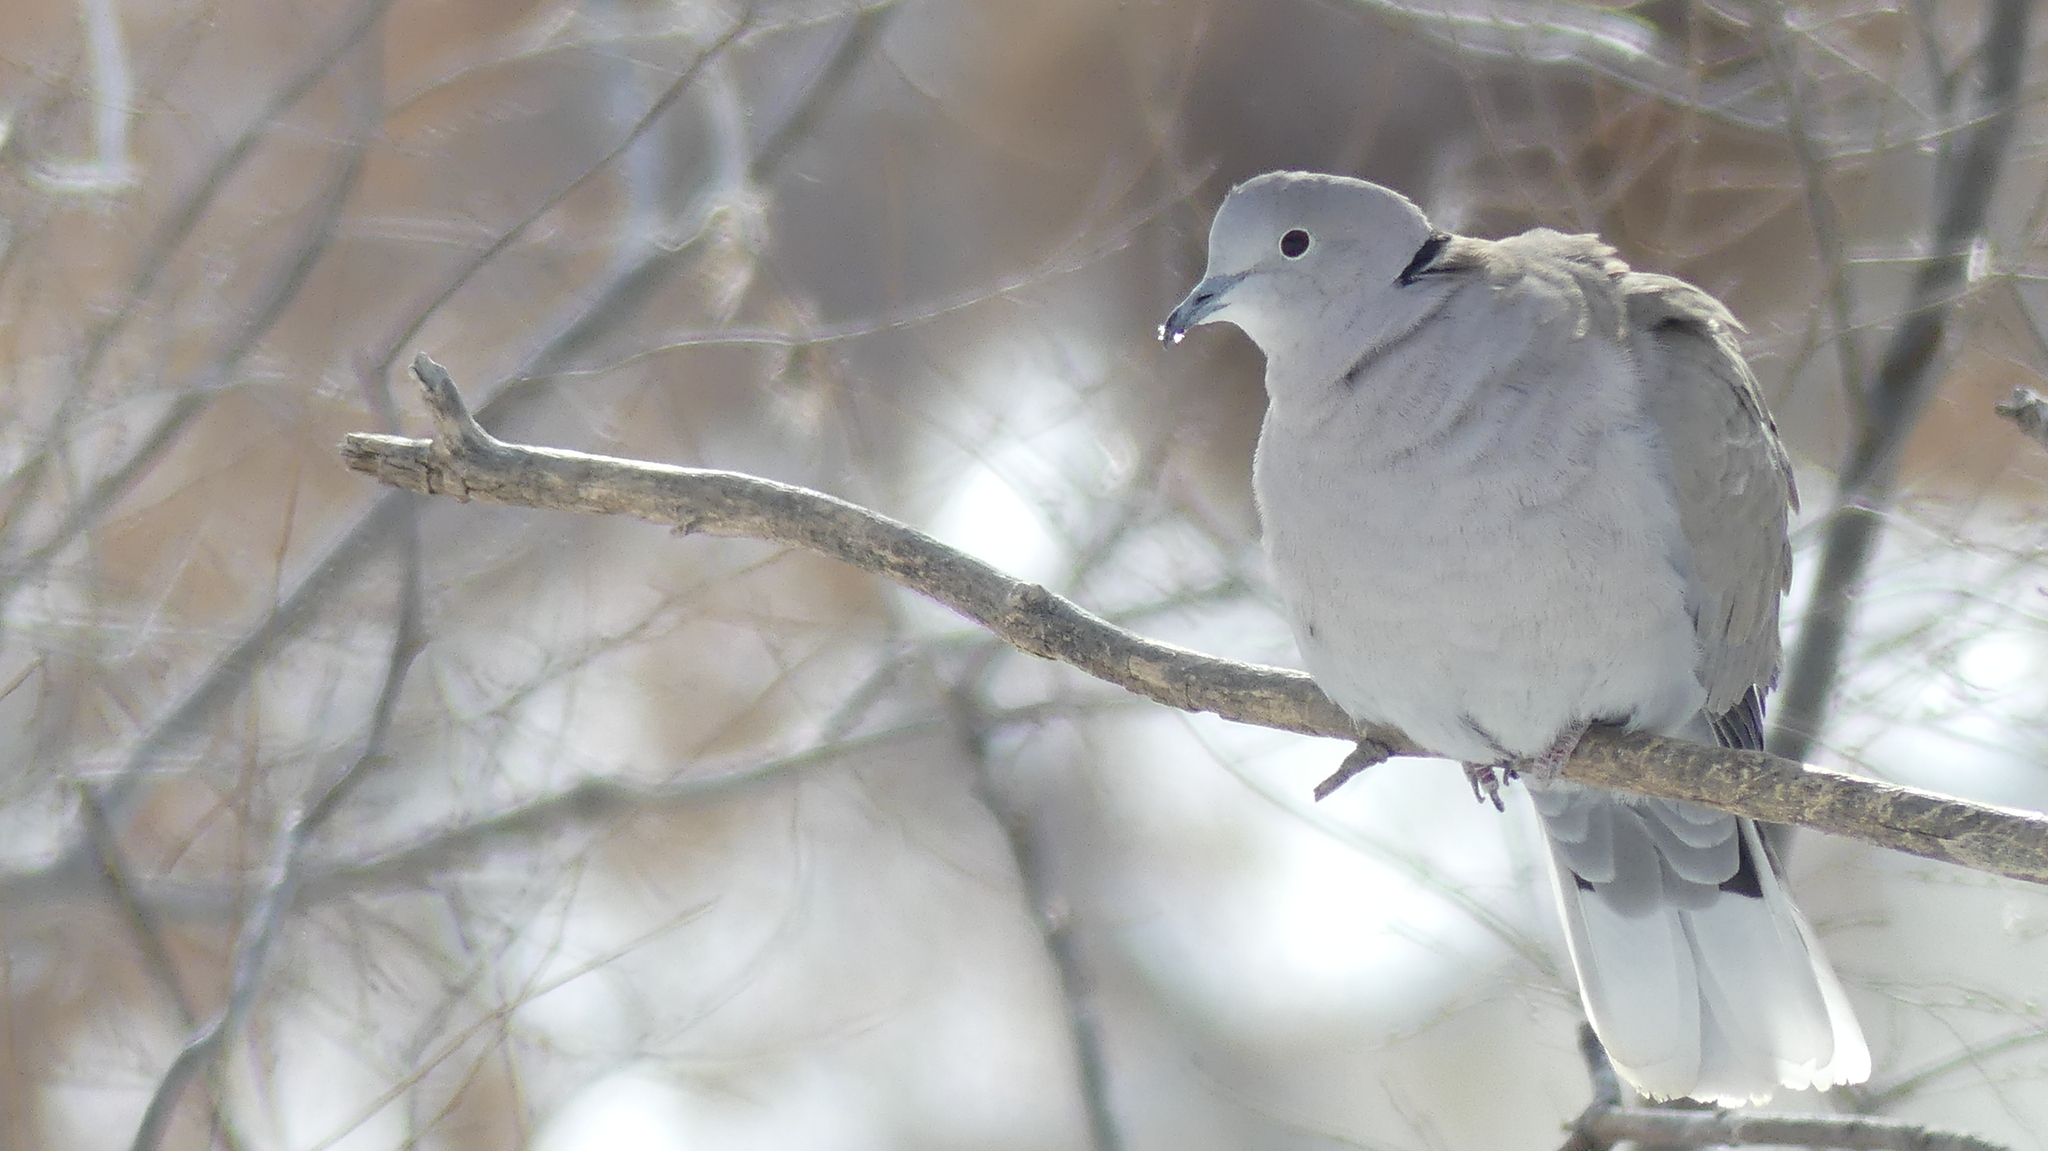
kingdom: Animalia
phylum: Chordata
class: Aves
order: Columbiformes
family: Columbidae
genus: Streptopelia
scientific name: Streptopelia decaocto
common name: Eurasian collared dove
